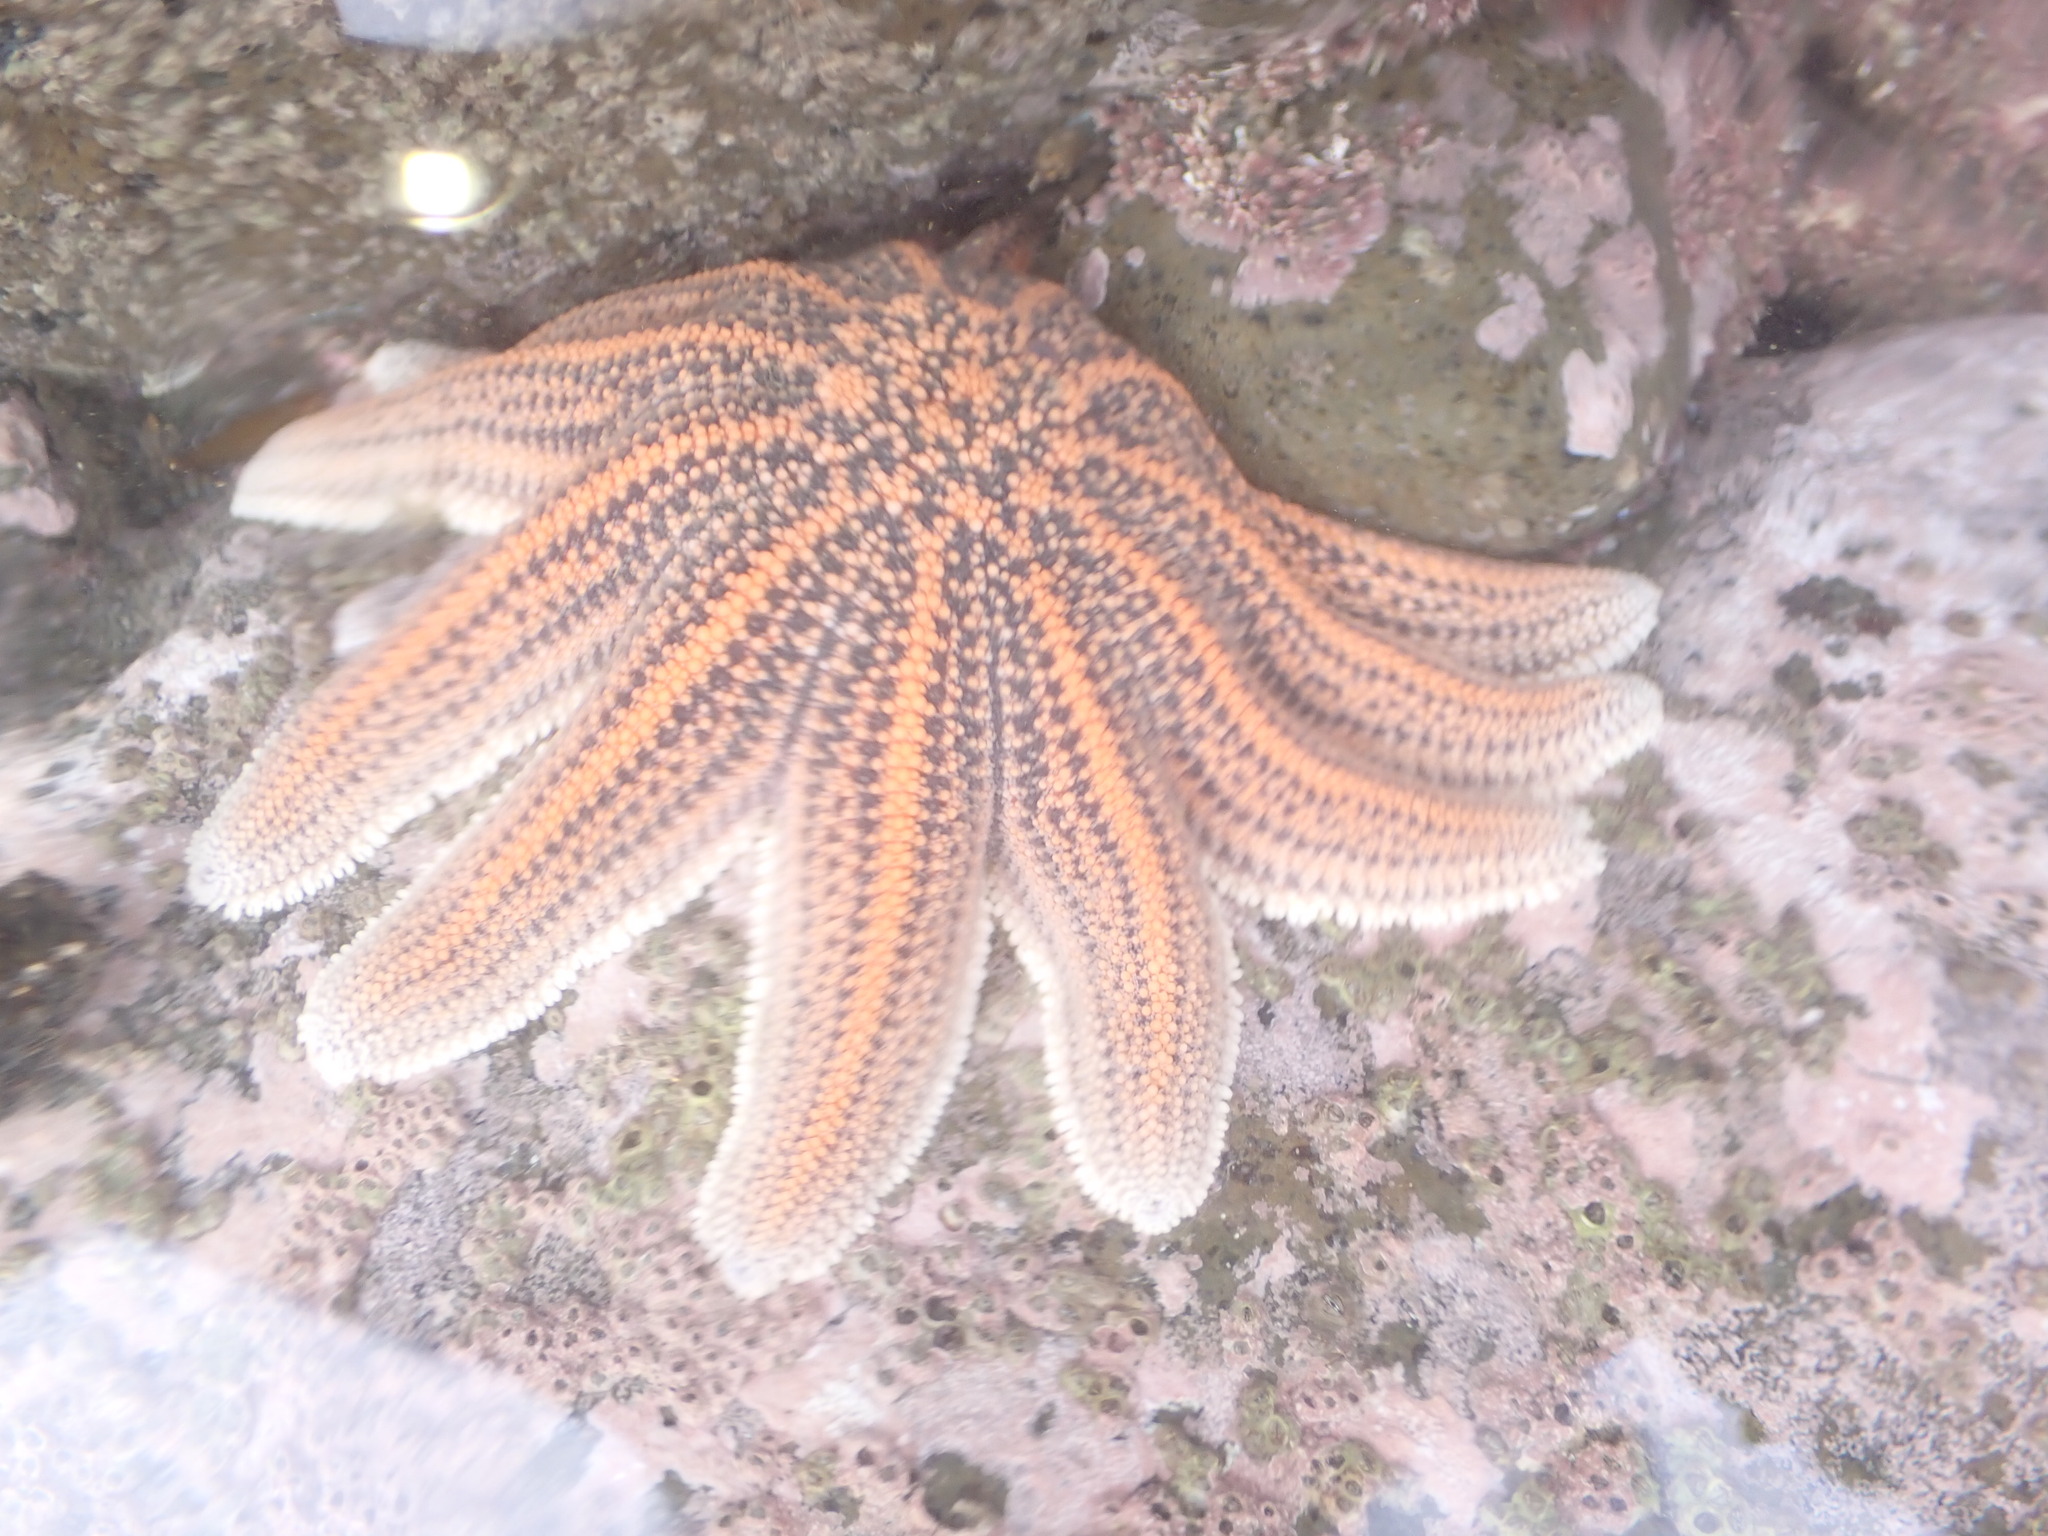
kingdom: Animalia
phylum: Echinodermata
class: Asteroidea
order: Forcipulatida
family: Stichasteridae
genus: Stichaster
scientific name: Stichaster australis
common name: Reef starfish
